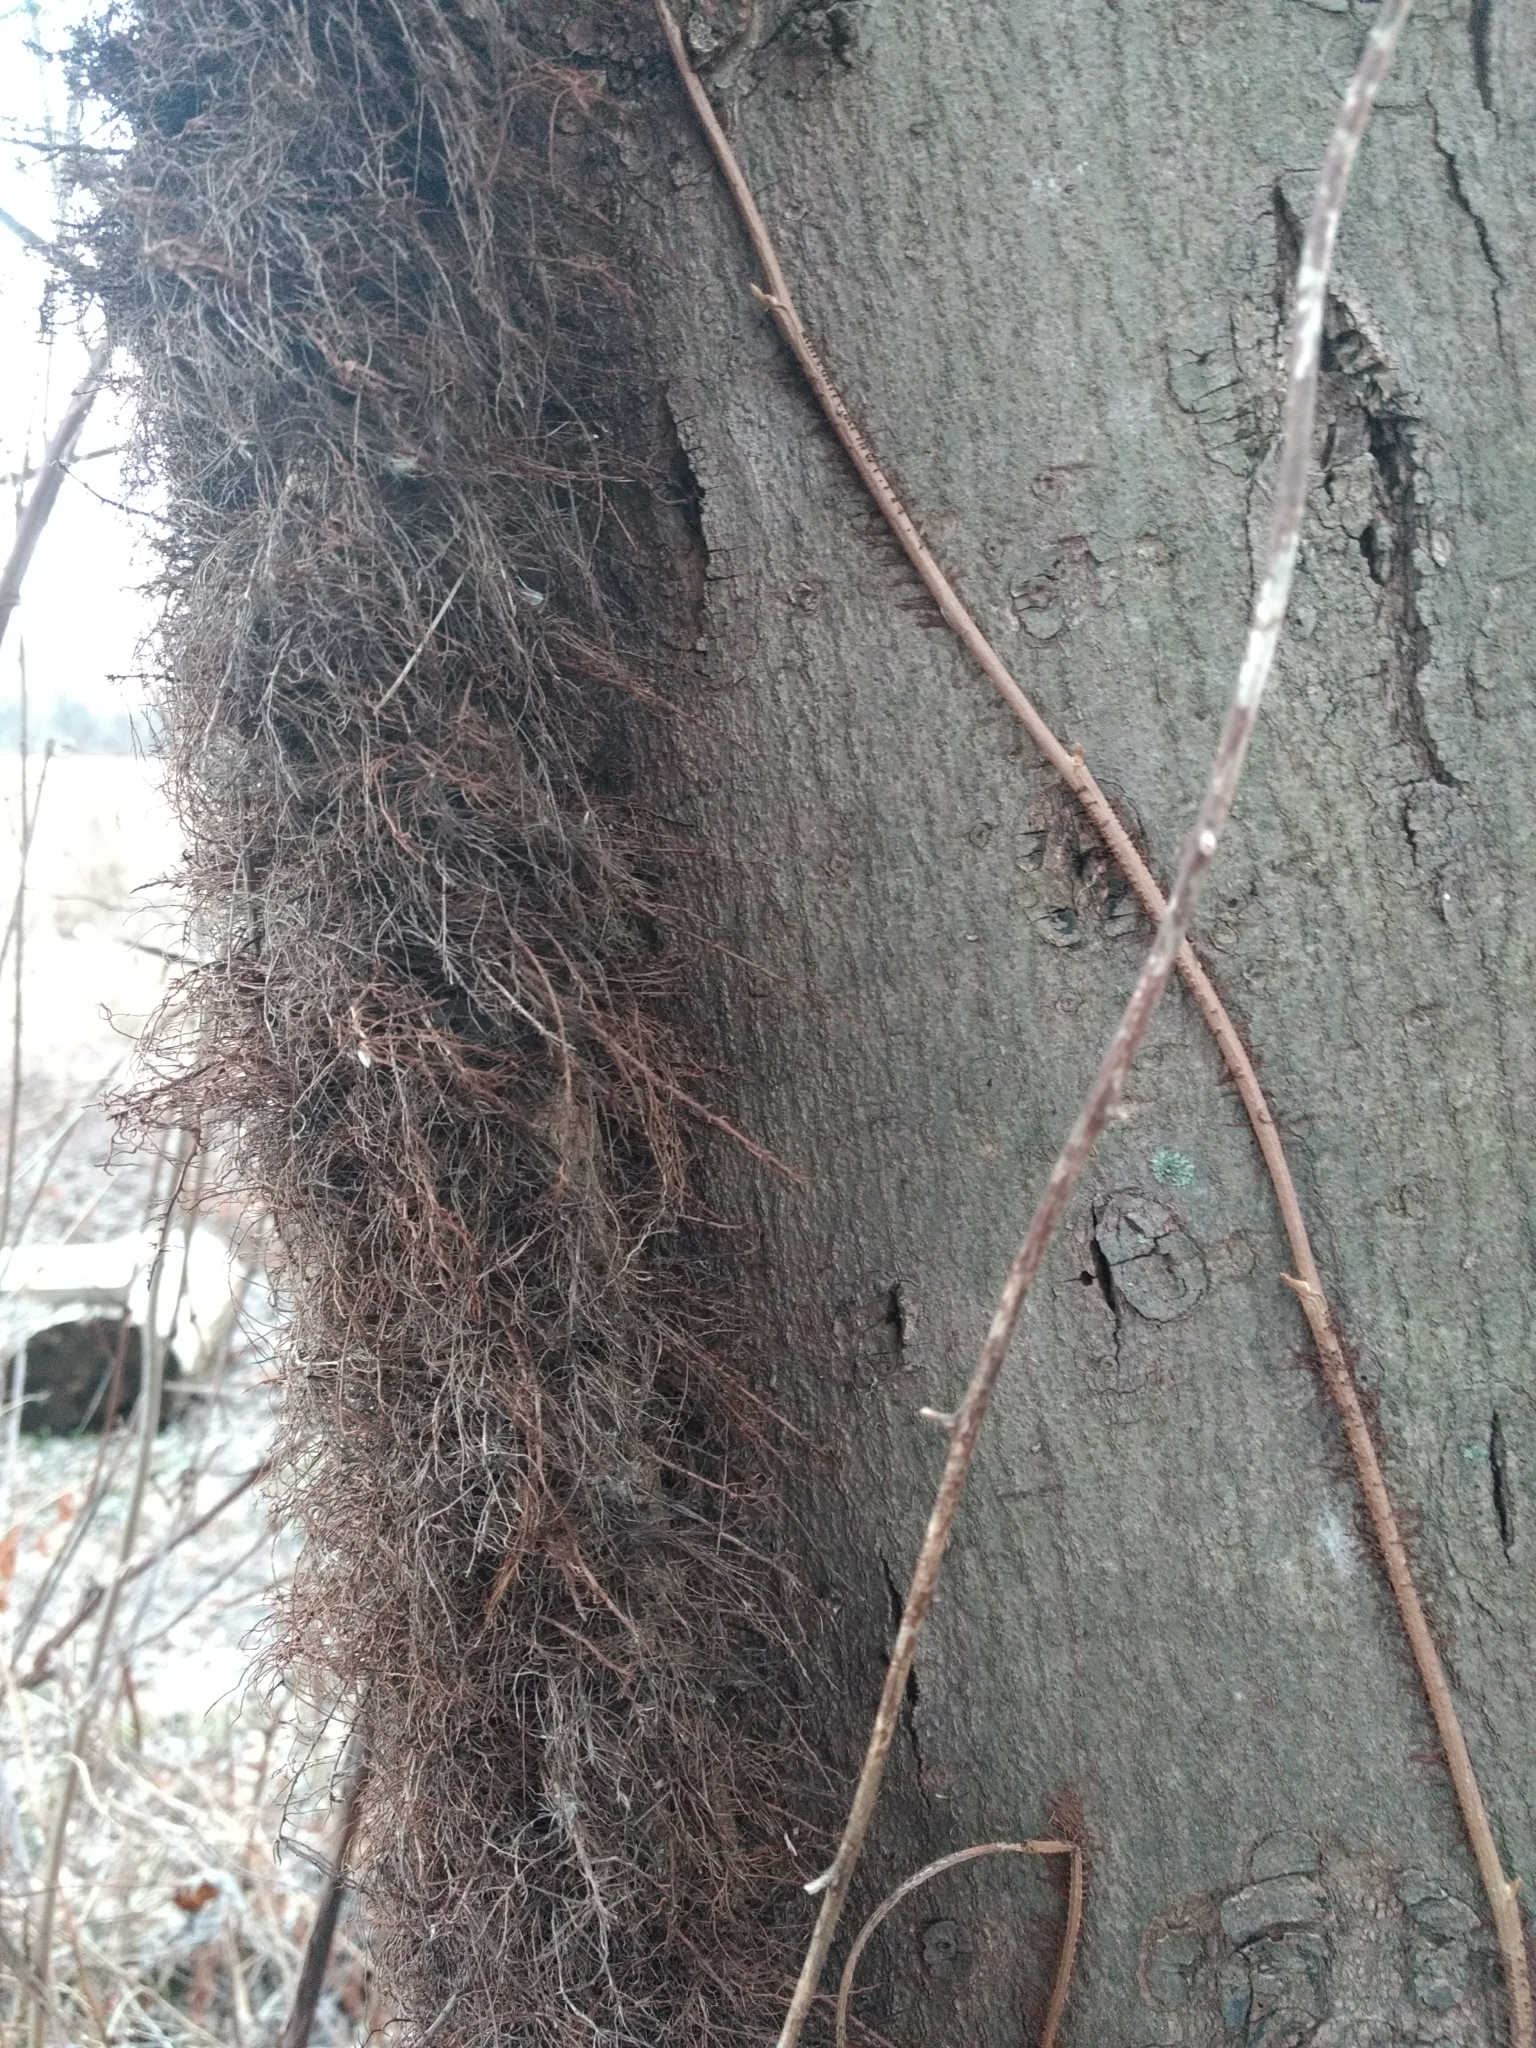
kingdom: Plantae
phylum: Tracheophyta
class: Magnoliopsida
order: Sapindales
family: Anacardiaceae
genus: Toxicodendron
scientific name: Toxicodendron radicans
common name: Poison ivy
